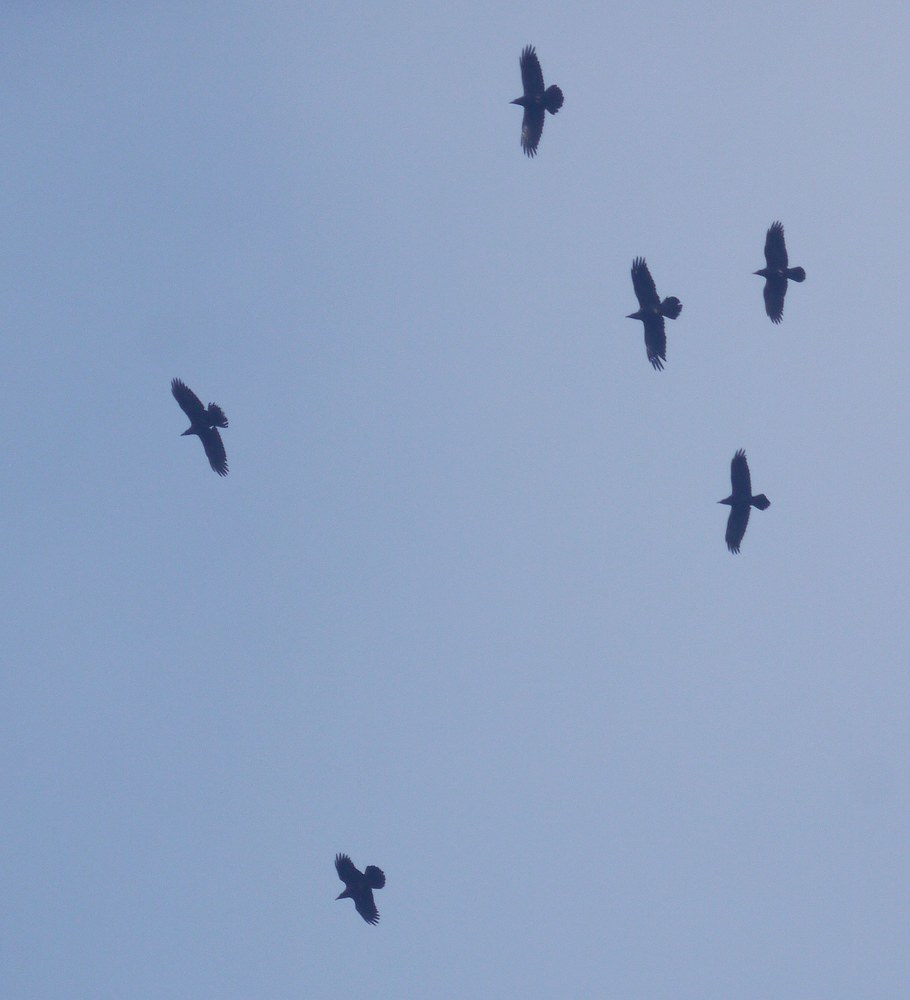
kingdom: Animalia
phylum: Chordata
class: Aves
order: Passeriformes
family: Corvidae
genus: Corvus
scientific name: Corvus corax
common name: Common raven
